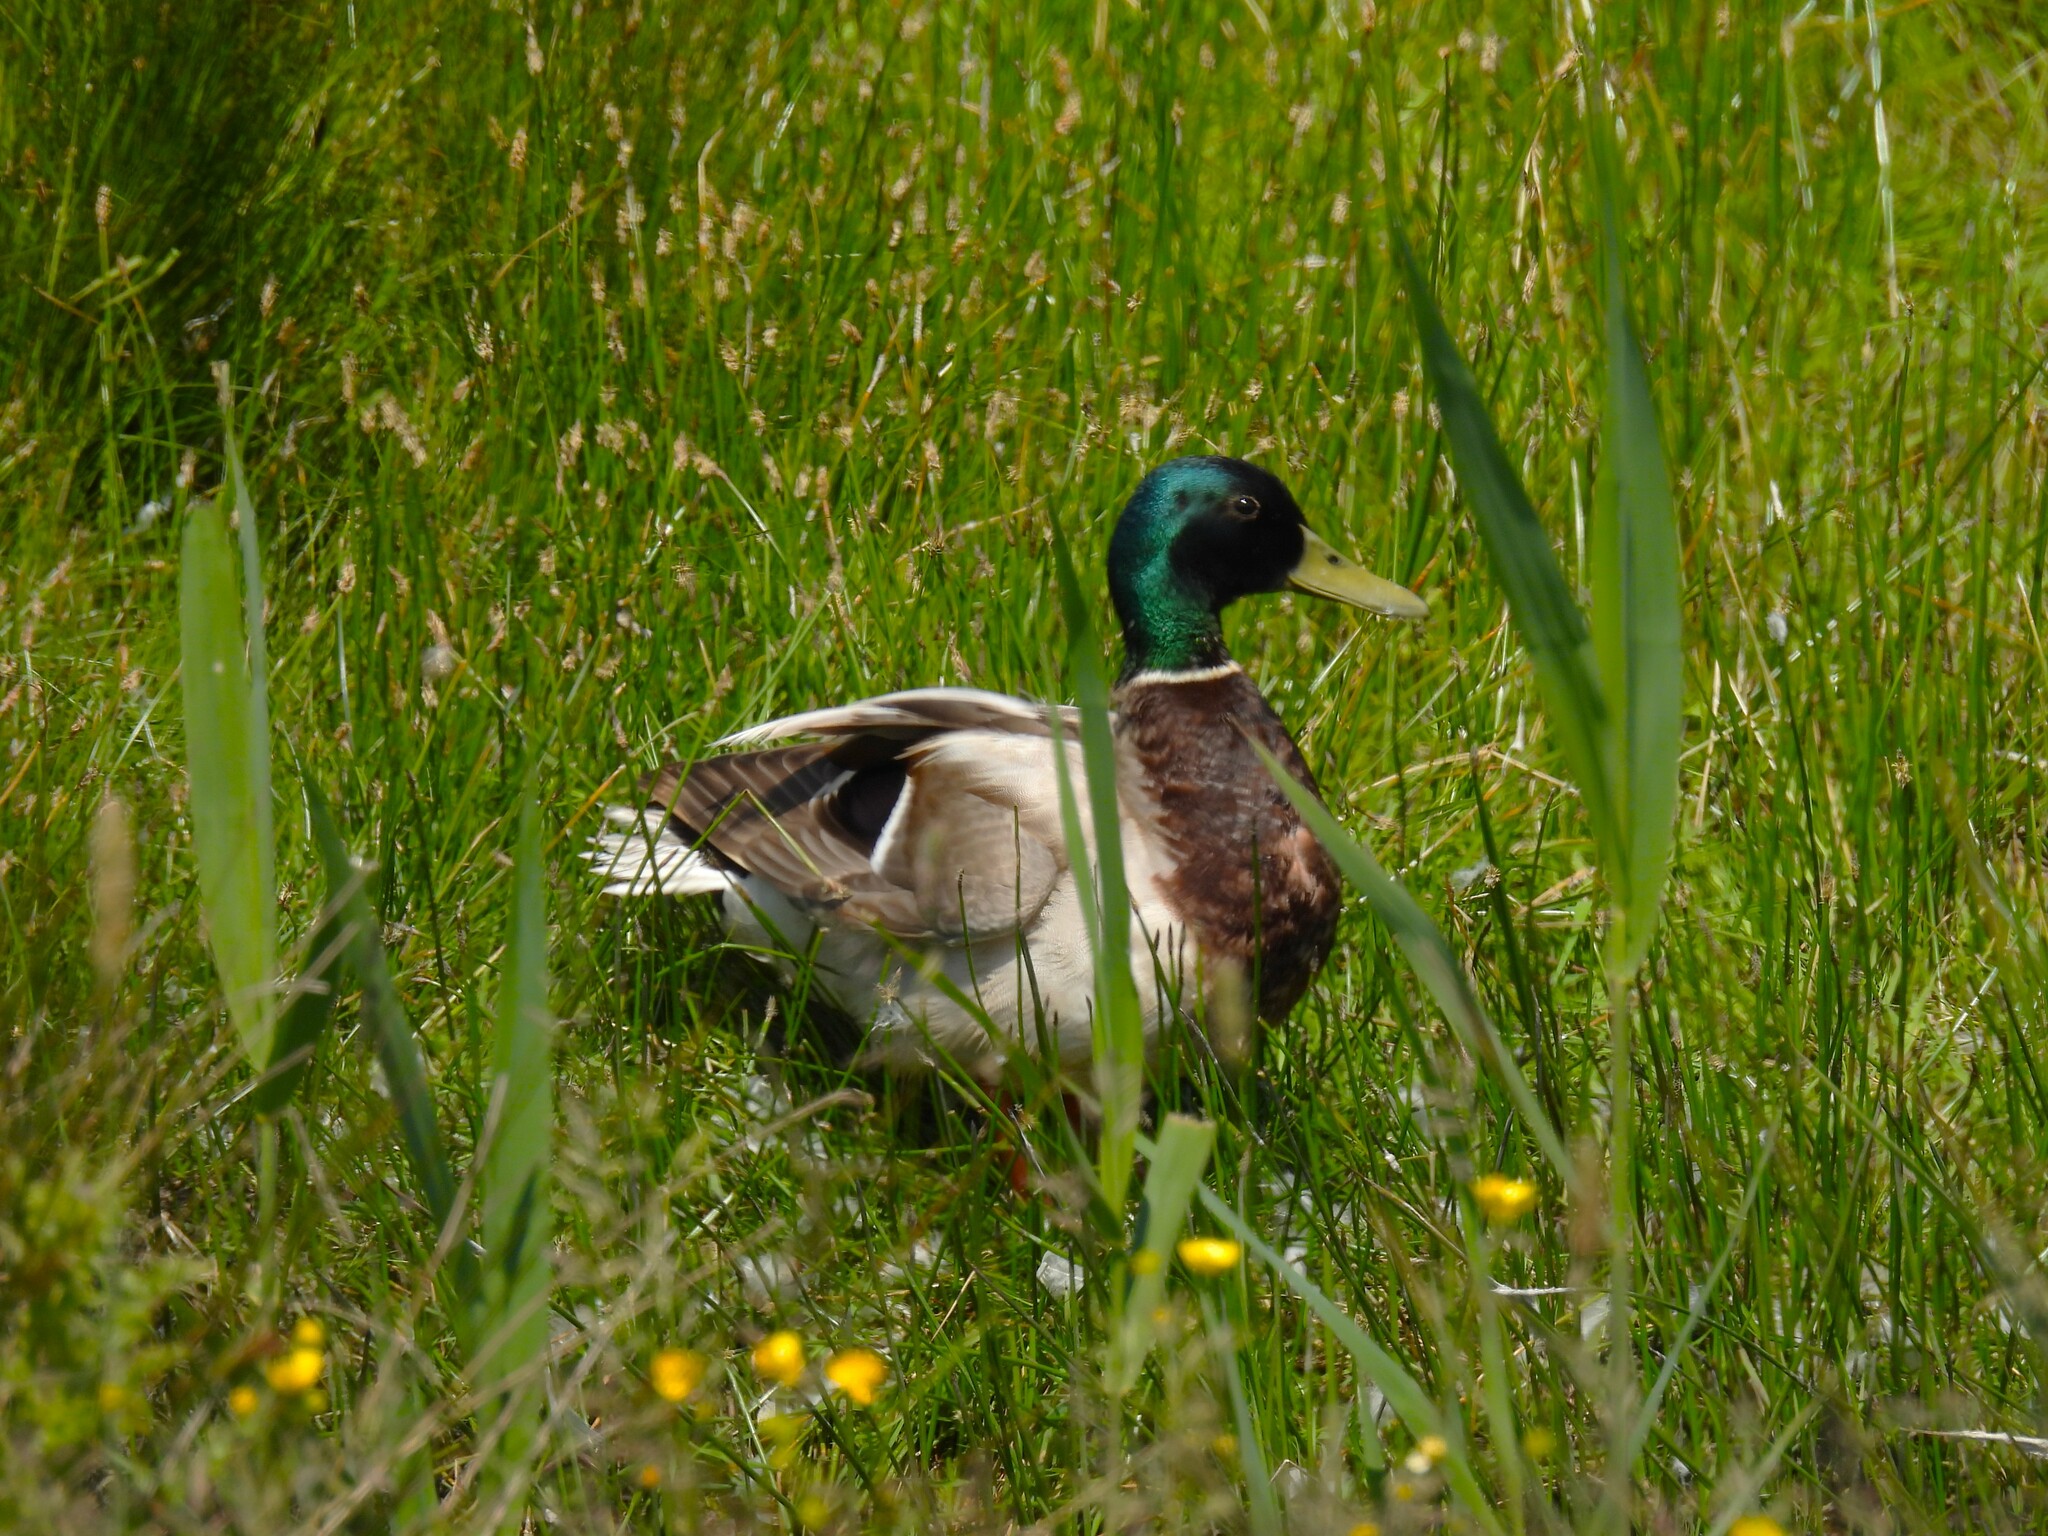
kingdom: Animalia
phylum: Chordata
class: Aves
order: Anseriformes
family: Anatidae
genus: Anas
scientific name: Anas platyrhynchos
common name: Mallard
